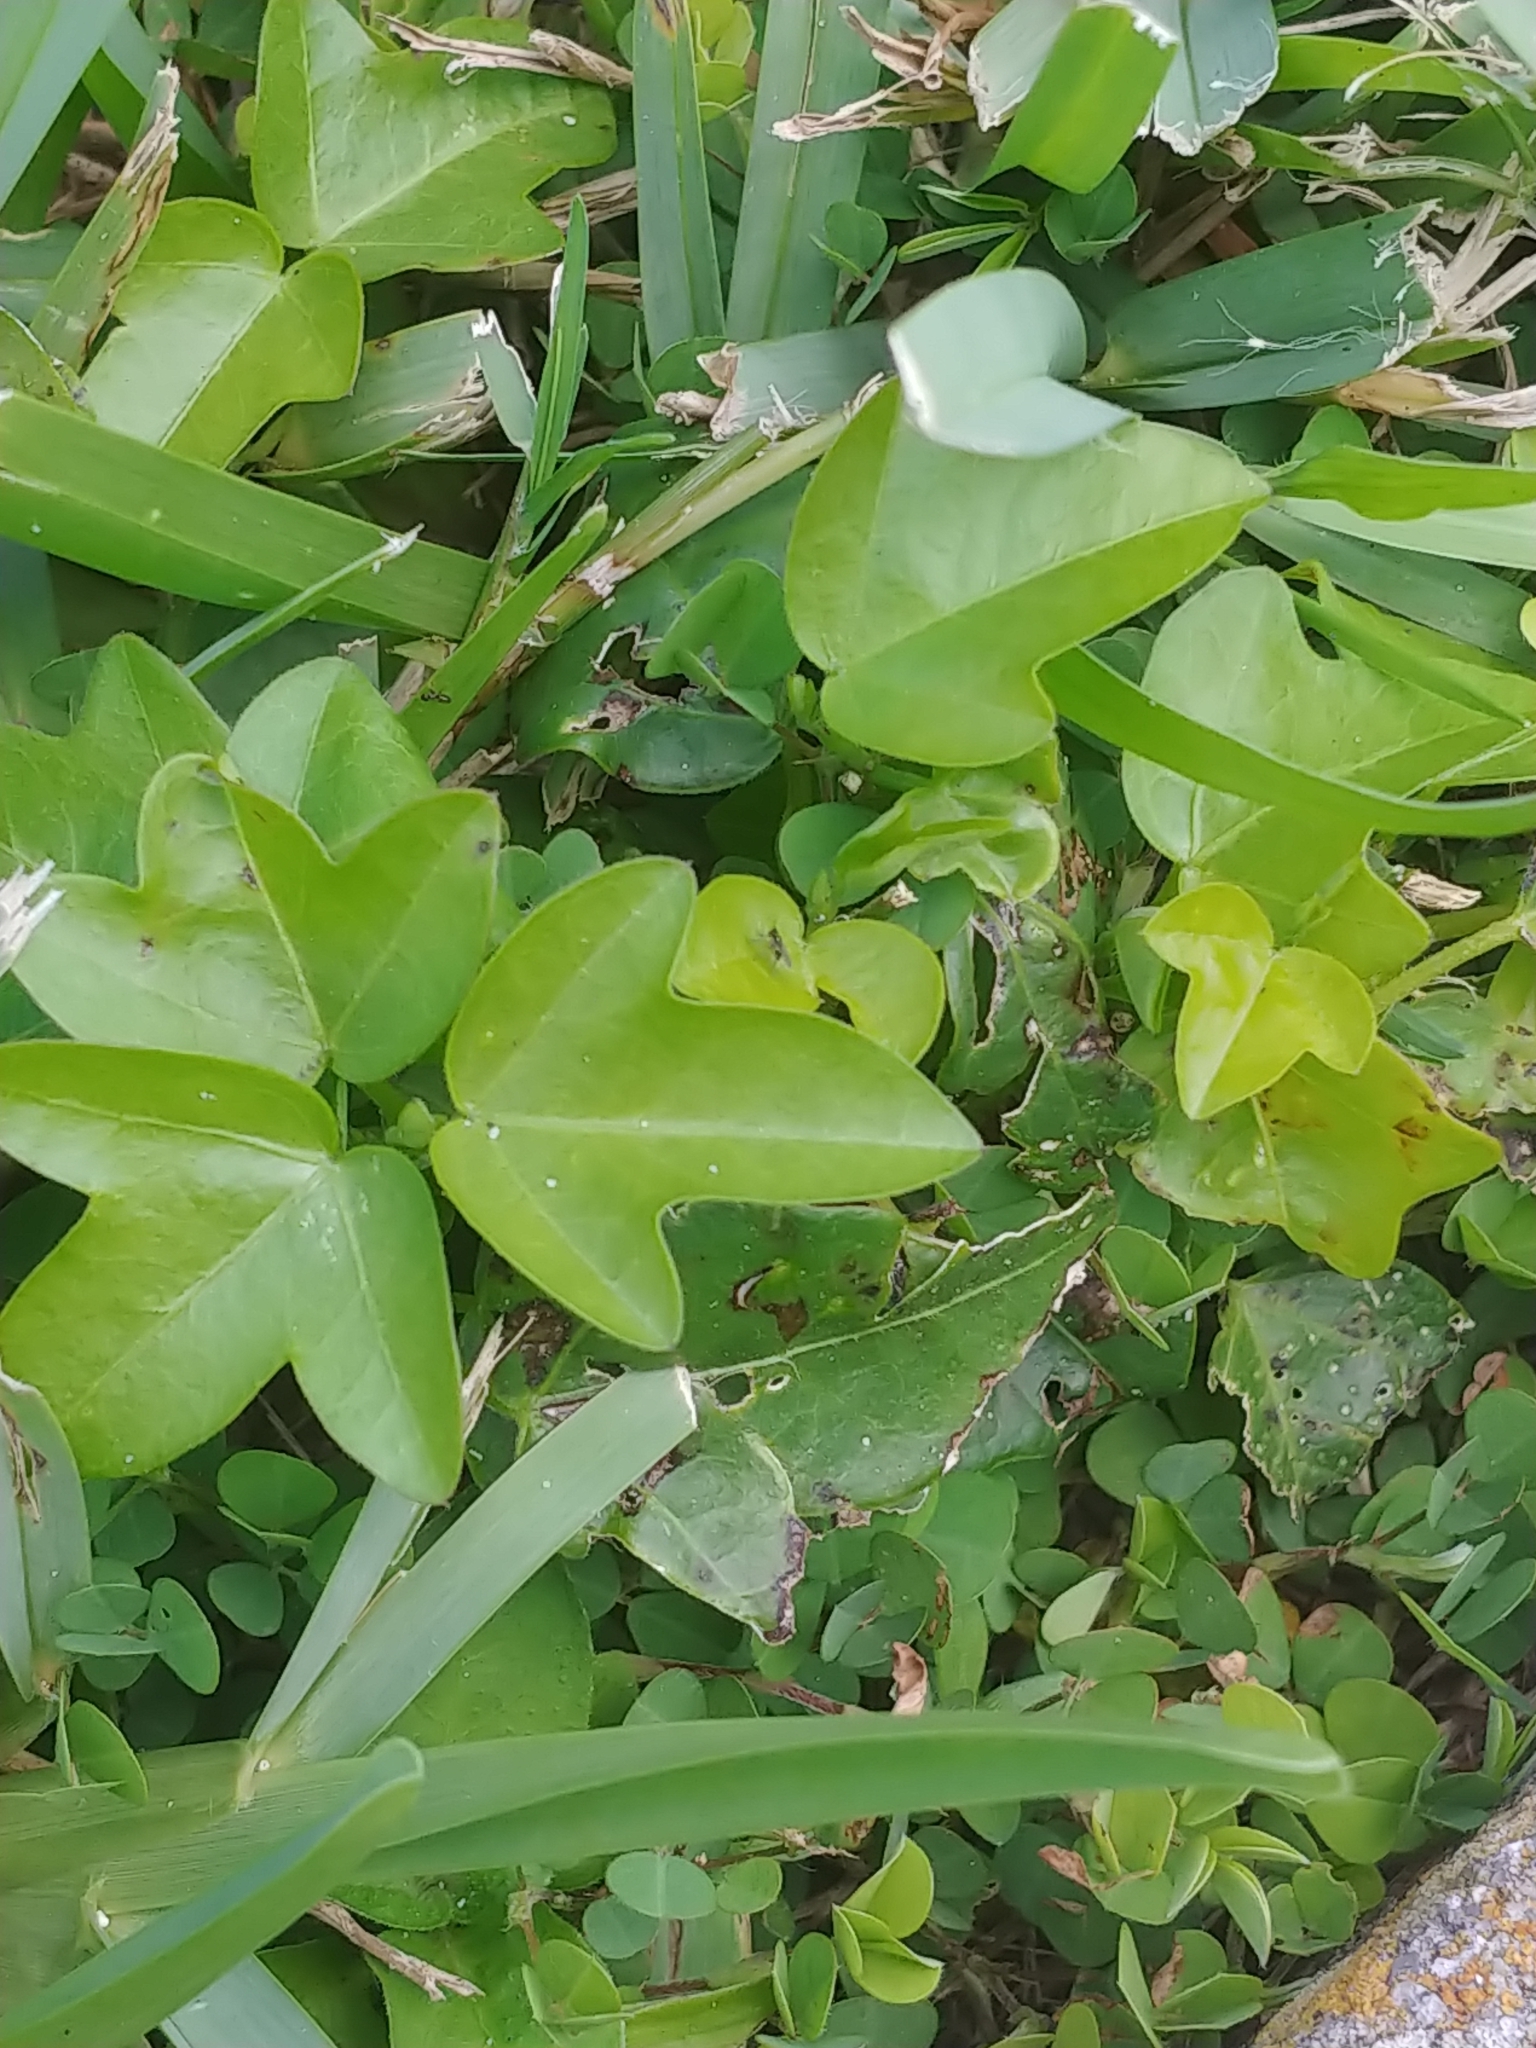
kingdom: Plantae
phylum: Tracheophyta
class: Magnoliopsida
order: Malpighiales
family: Passifloraceae
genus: Passiflora
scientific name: Passiflora pallida
